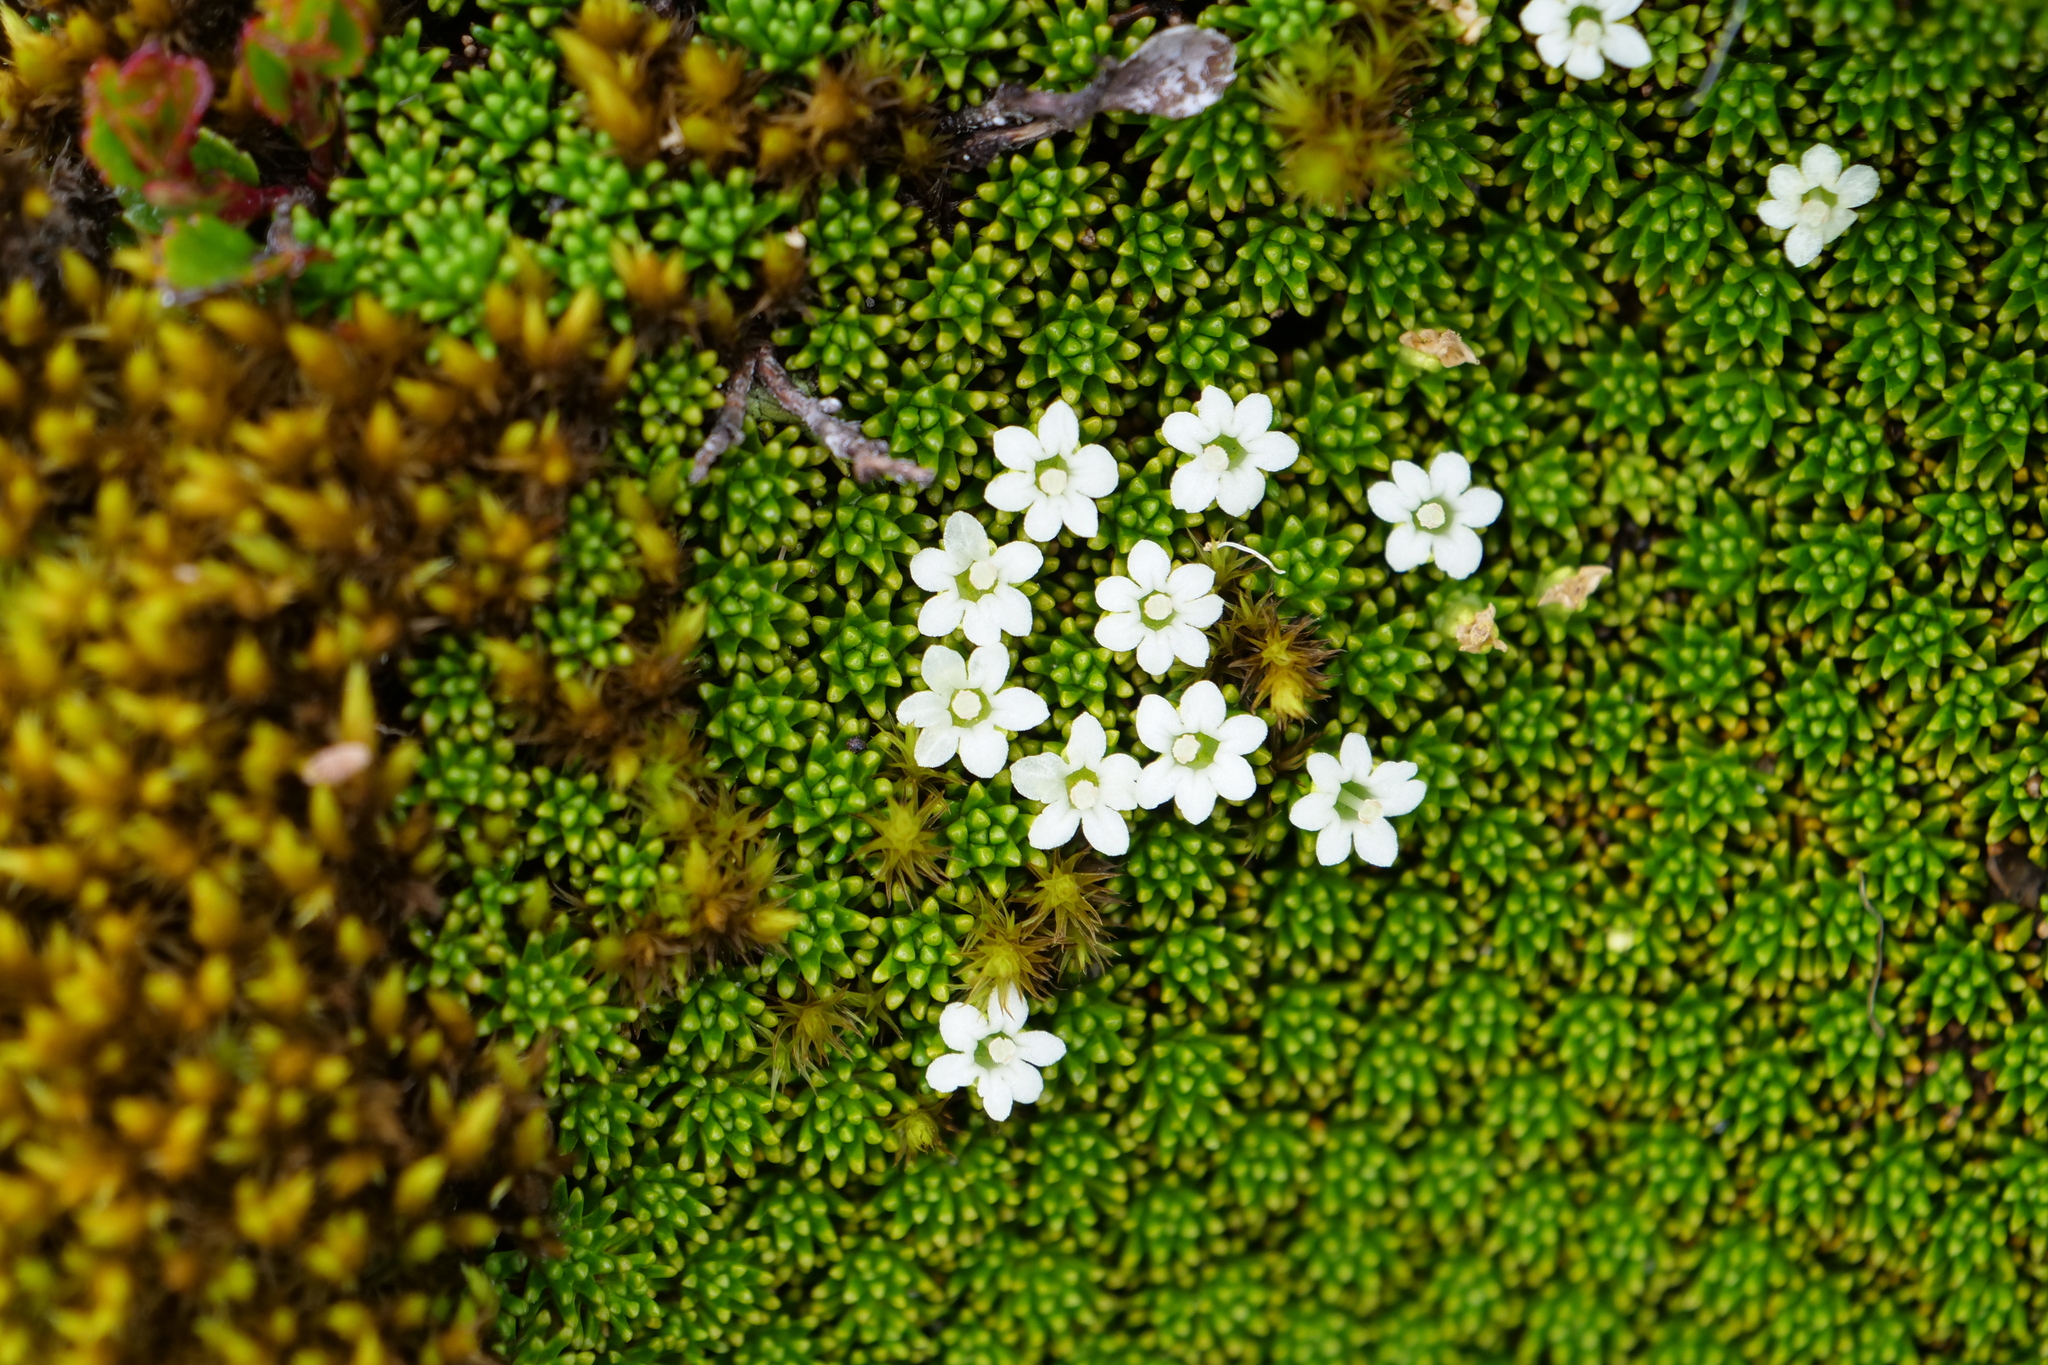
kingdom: Plantae
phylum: Tracheophyta
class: Magnoliopsida
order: Asterales
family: Stylidiaceae
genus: Phyllachne
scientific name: Phyllachne colensoi
